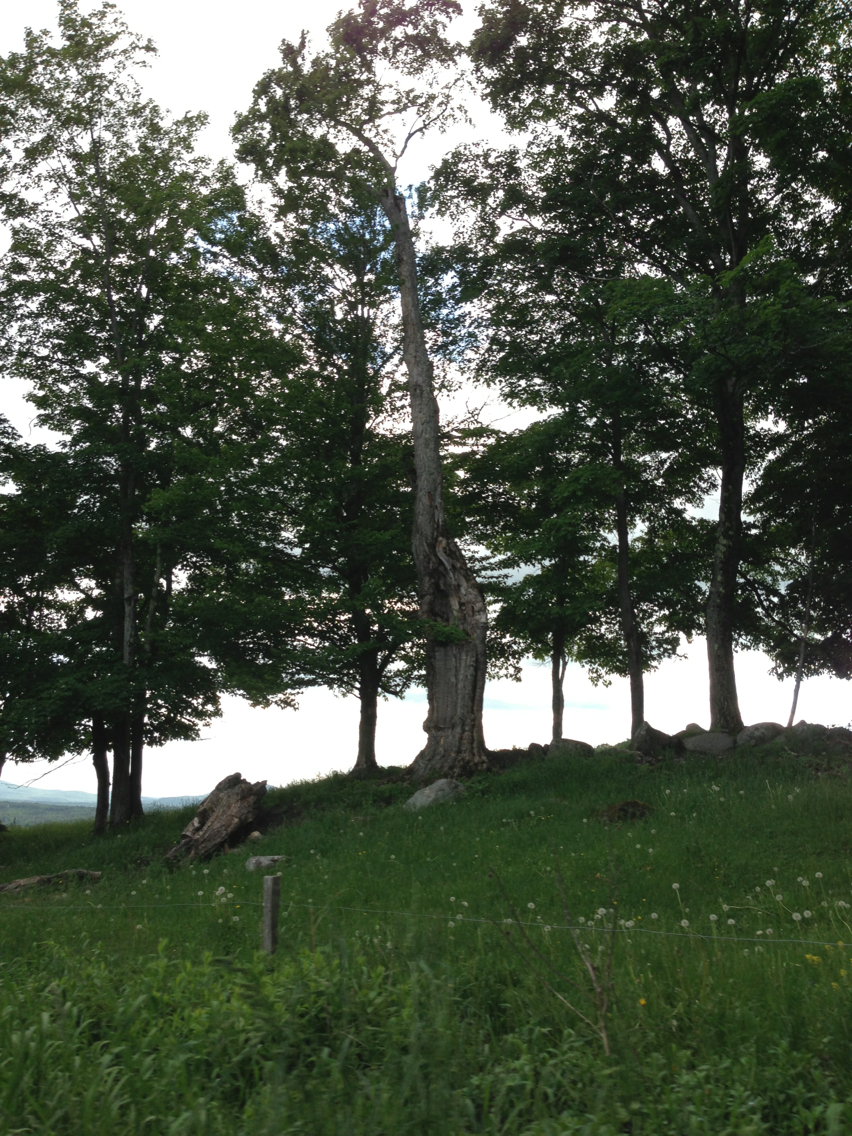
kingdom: Plantae
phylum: Tracheophyta
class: Magnoliopsida
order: Sapindales
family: Sapindaceae
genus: Acer
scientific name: Acer saccharum
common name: Sugar maple
